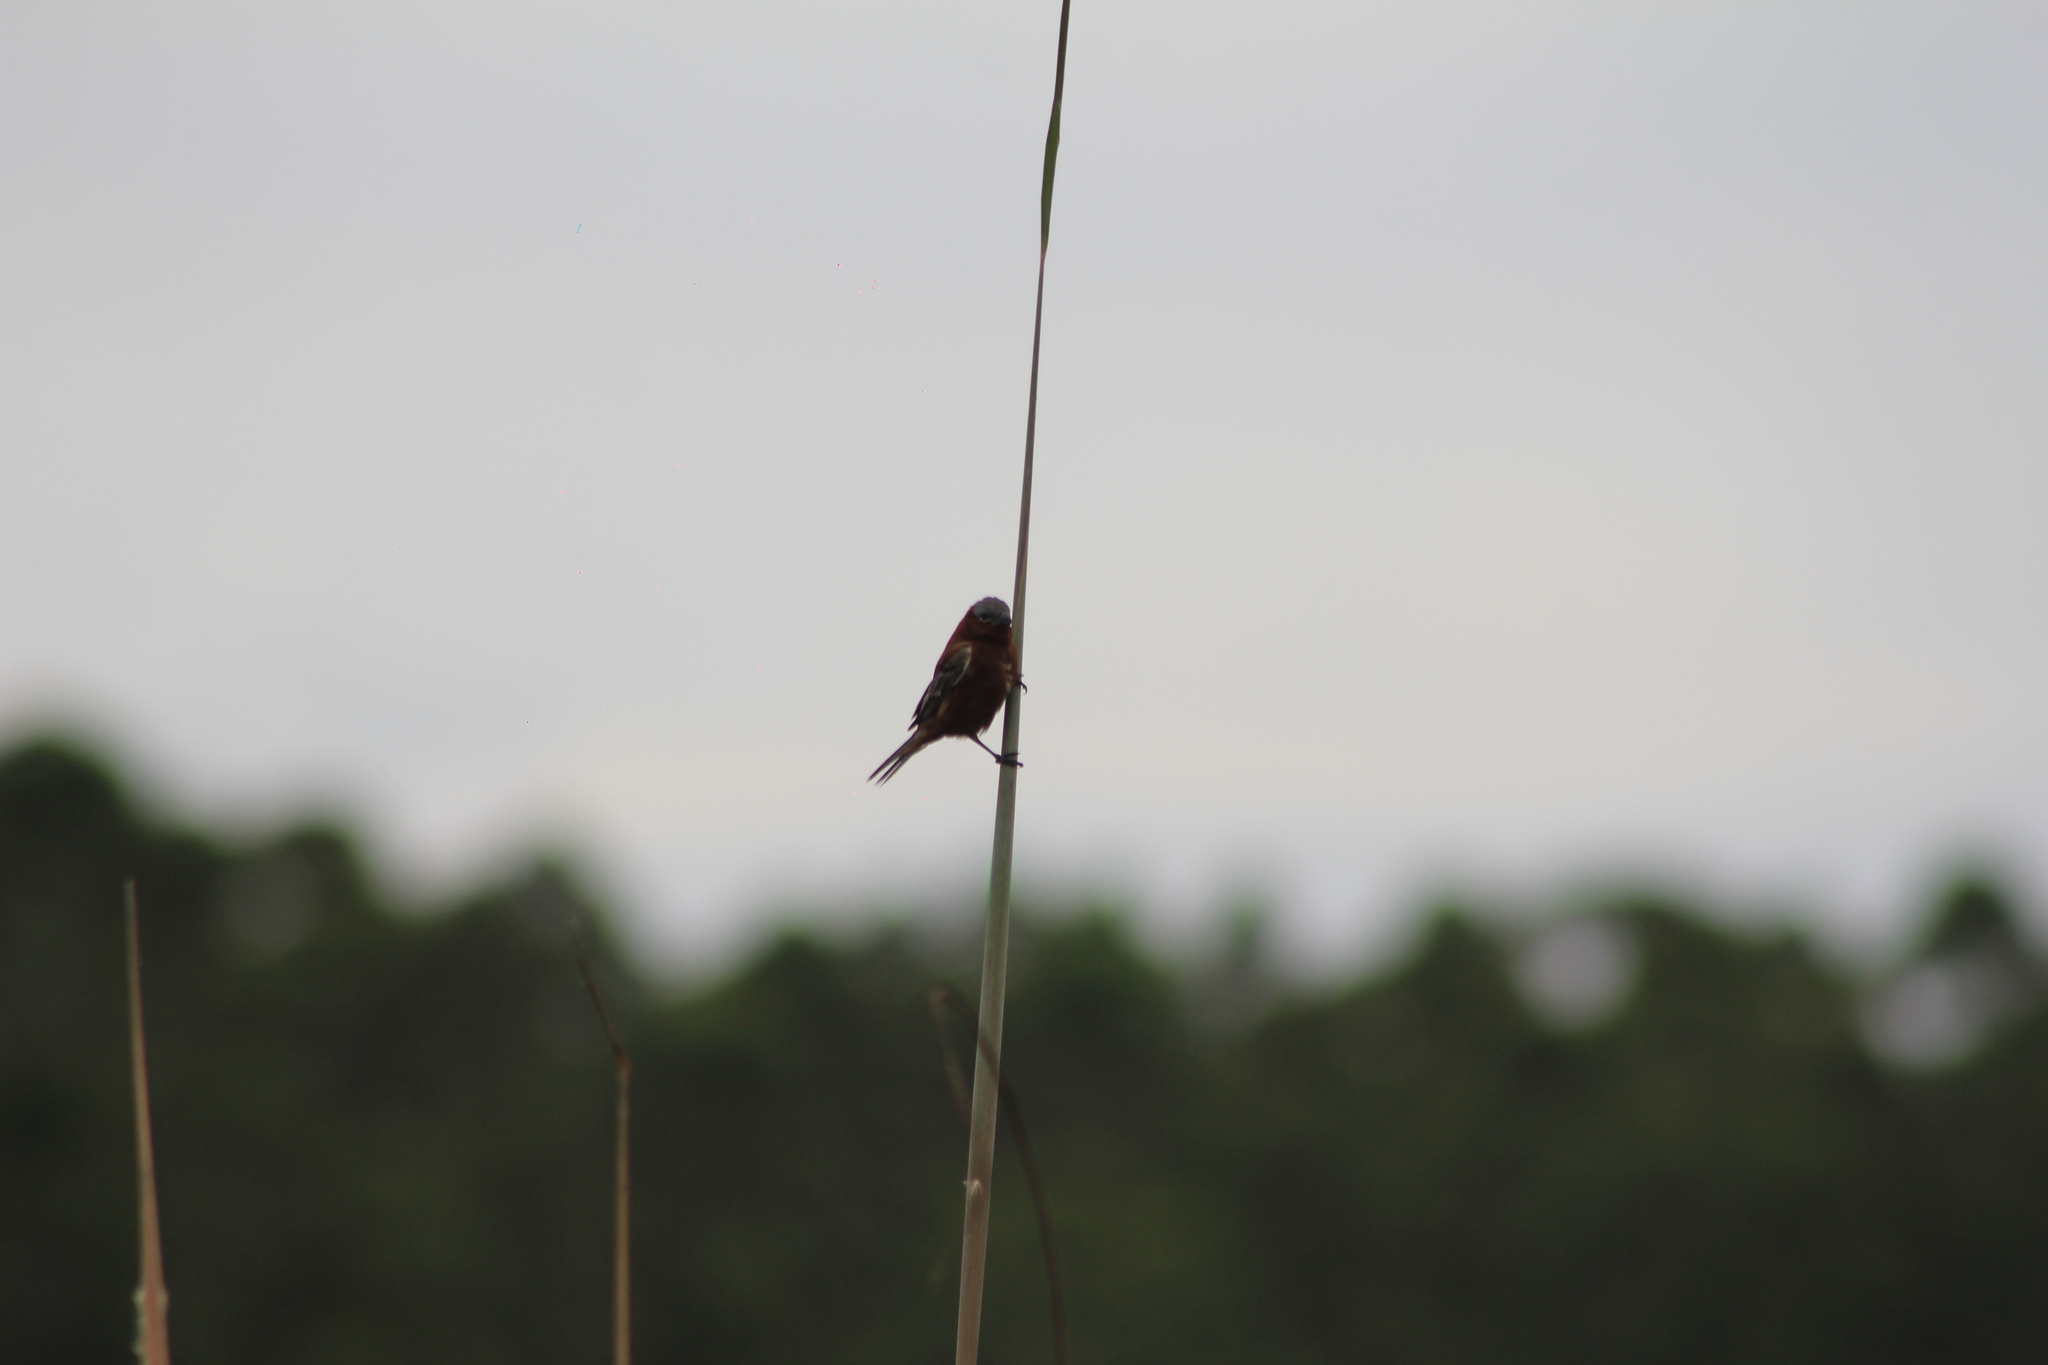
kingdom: Animalia
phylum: Chordata
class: Aves
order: Passeriformes
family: Thraupidae
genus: Sporophila
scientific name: Sporophila cinnamomea
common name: Chestnut seedeater
